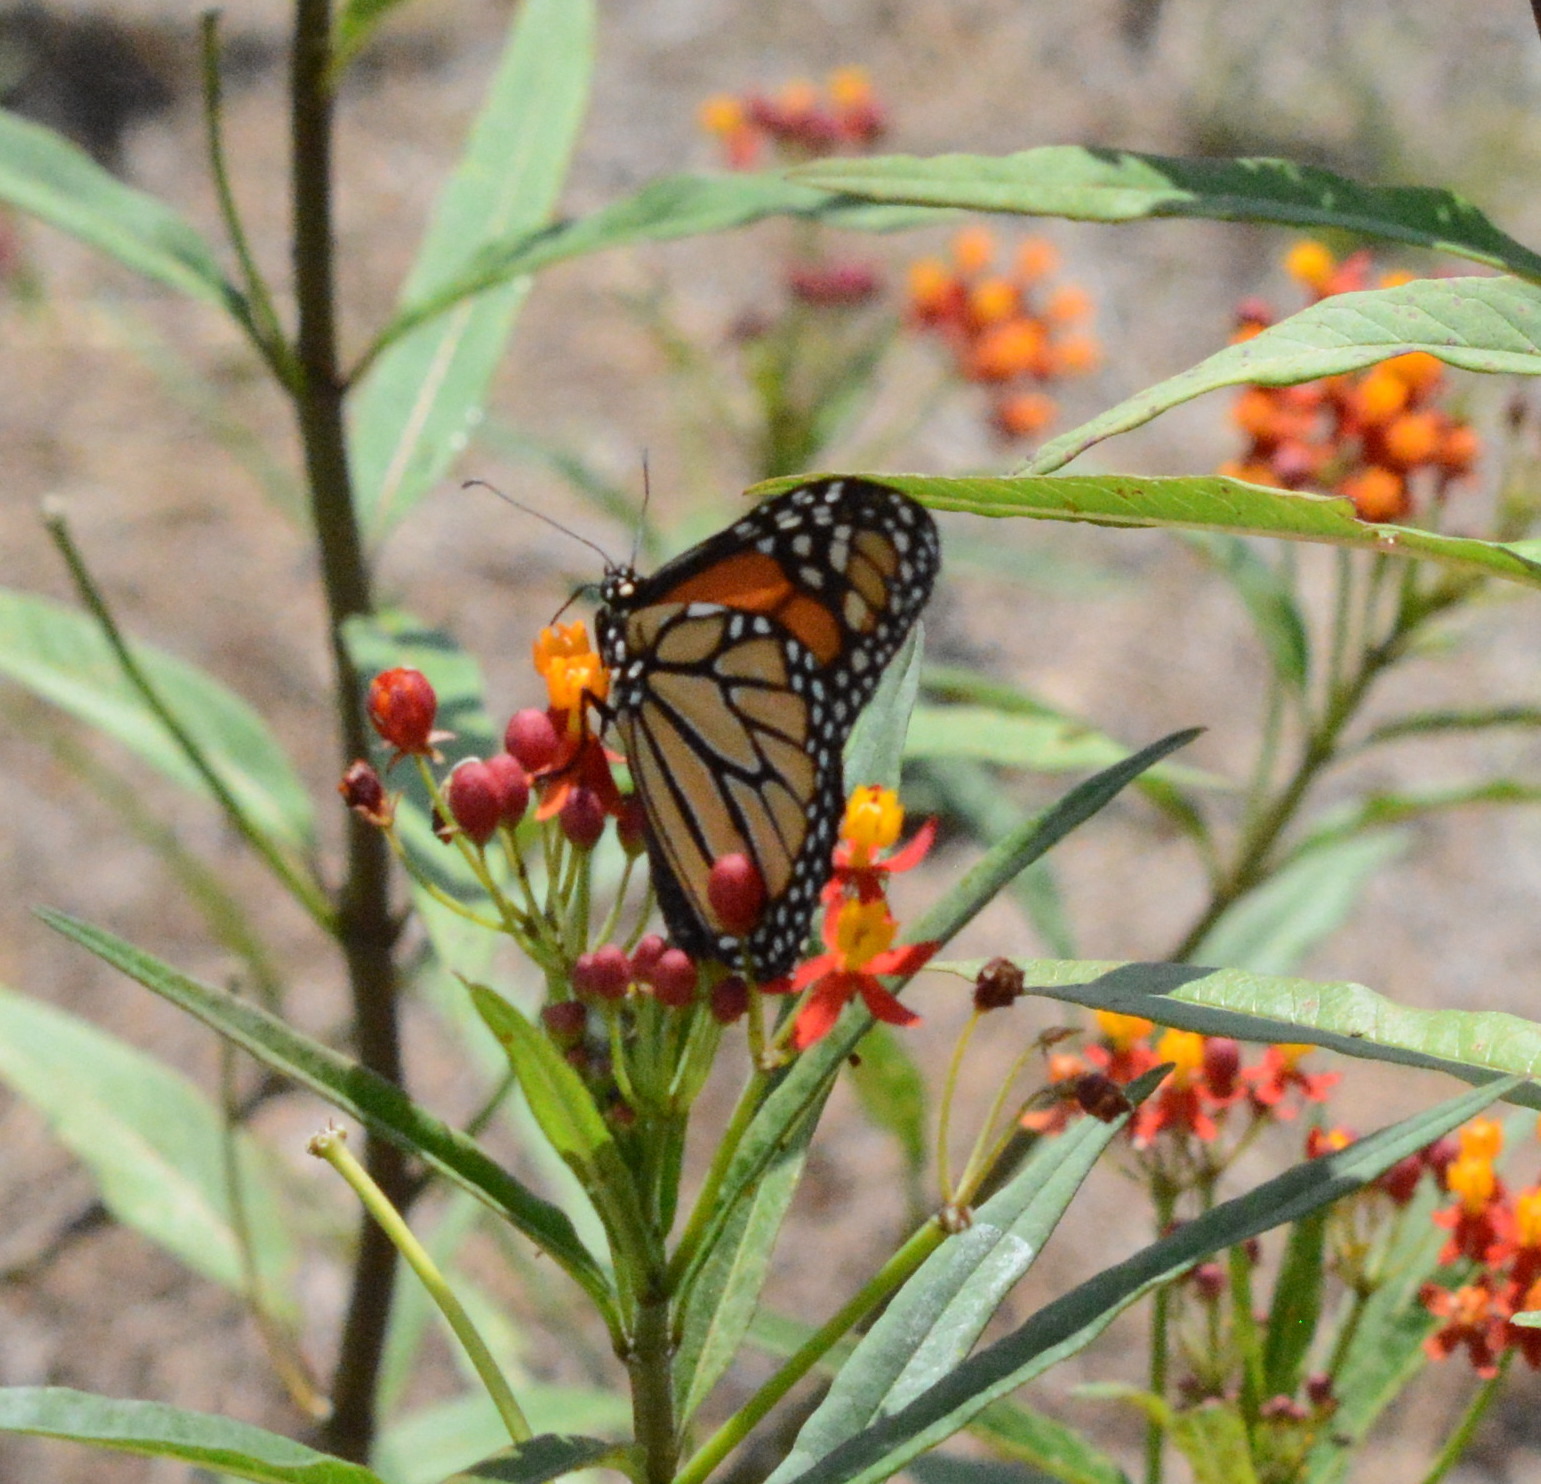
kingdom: Animalia
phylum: Arthropoda
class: Insecta
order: Lepidoptera
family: Nymphalidae
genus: Danaus
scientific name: Danaus plexippus
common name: Monarch
